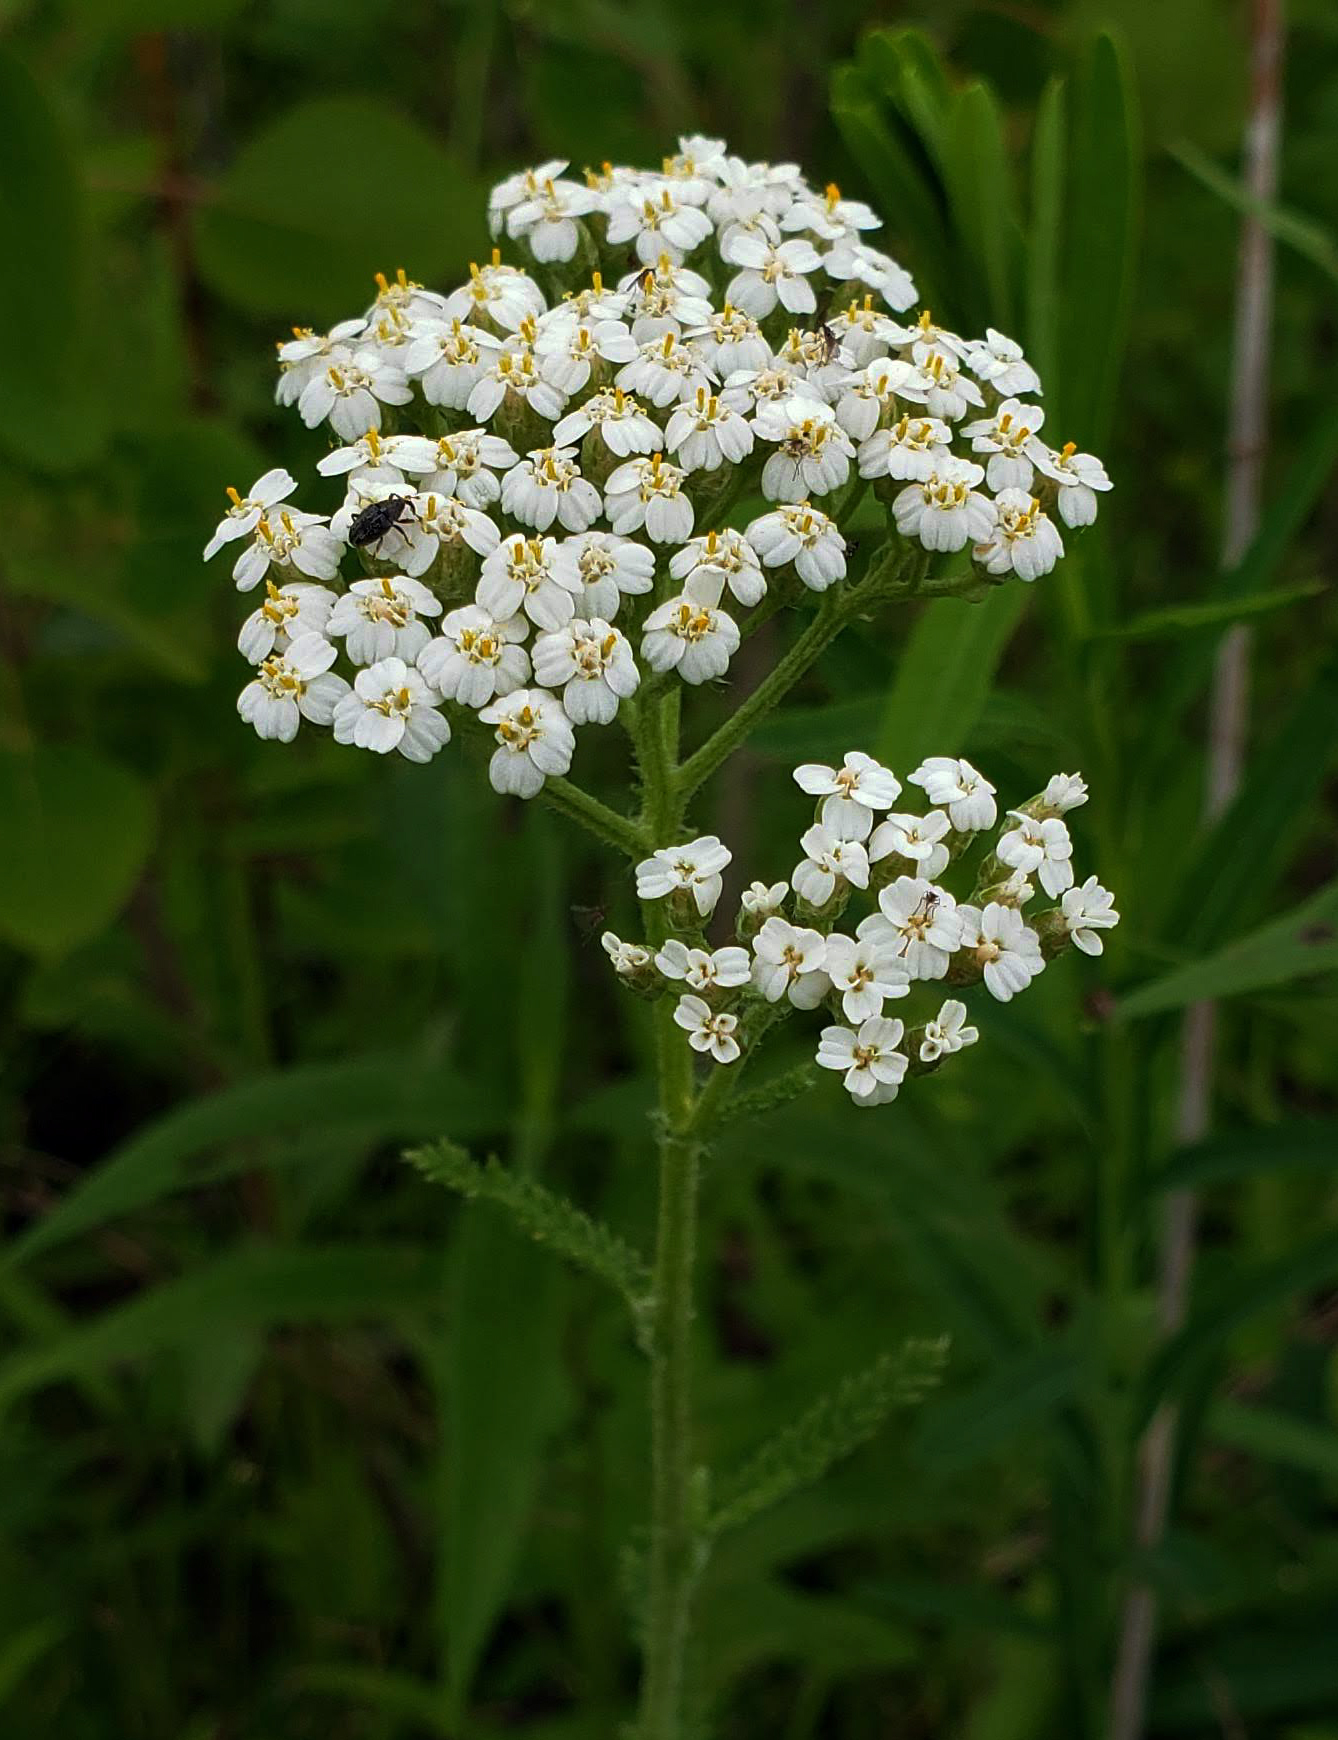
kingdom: Plantae
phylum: Tracheophyta
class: Magnoliopsida
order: Asterales
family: Asteraceae
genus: Achillea
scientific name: Achillea millefolium
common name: Yarrow
